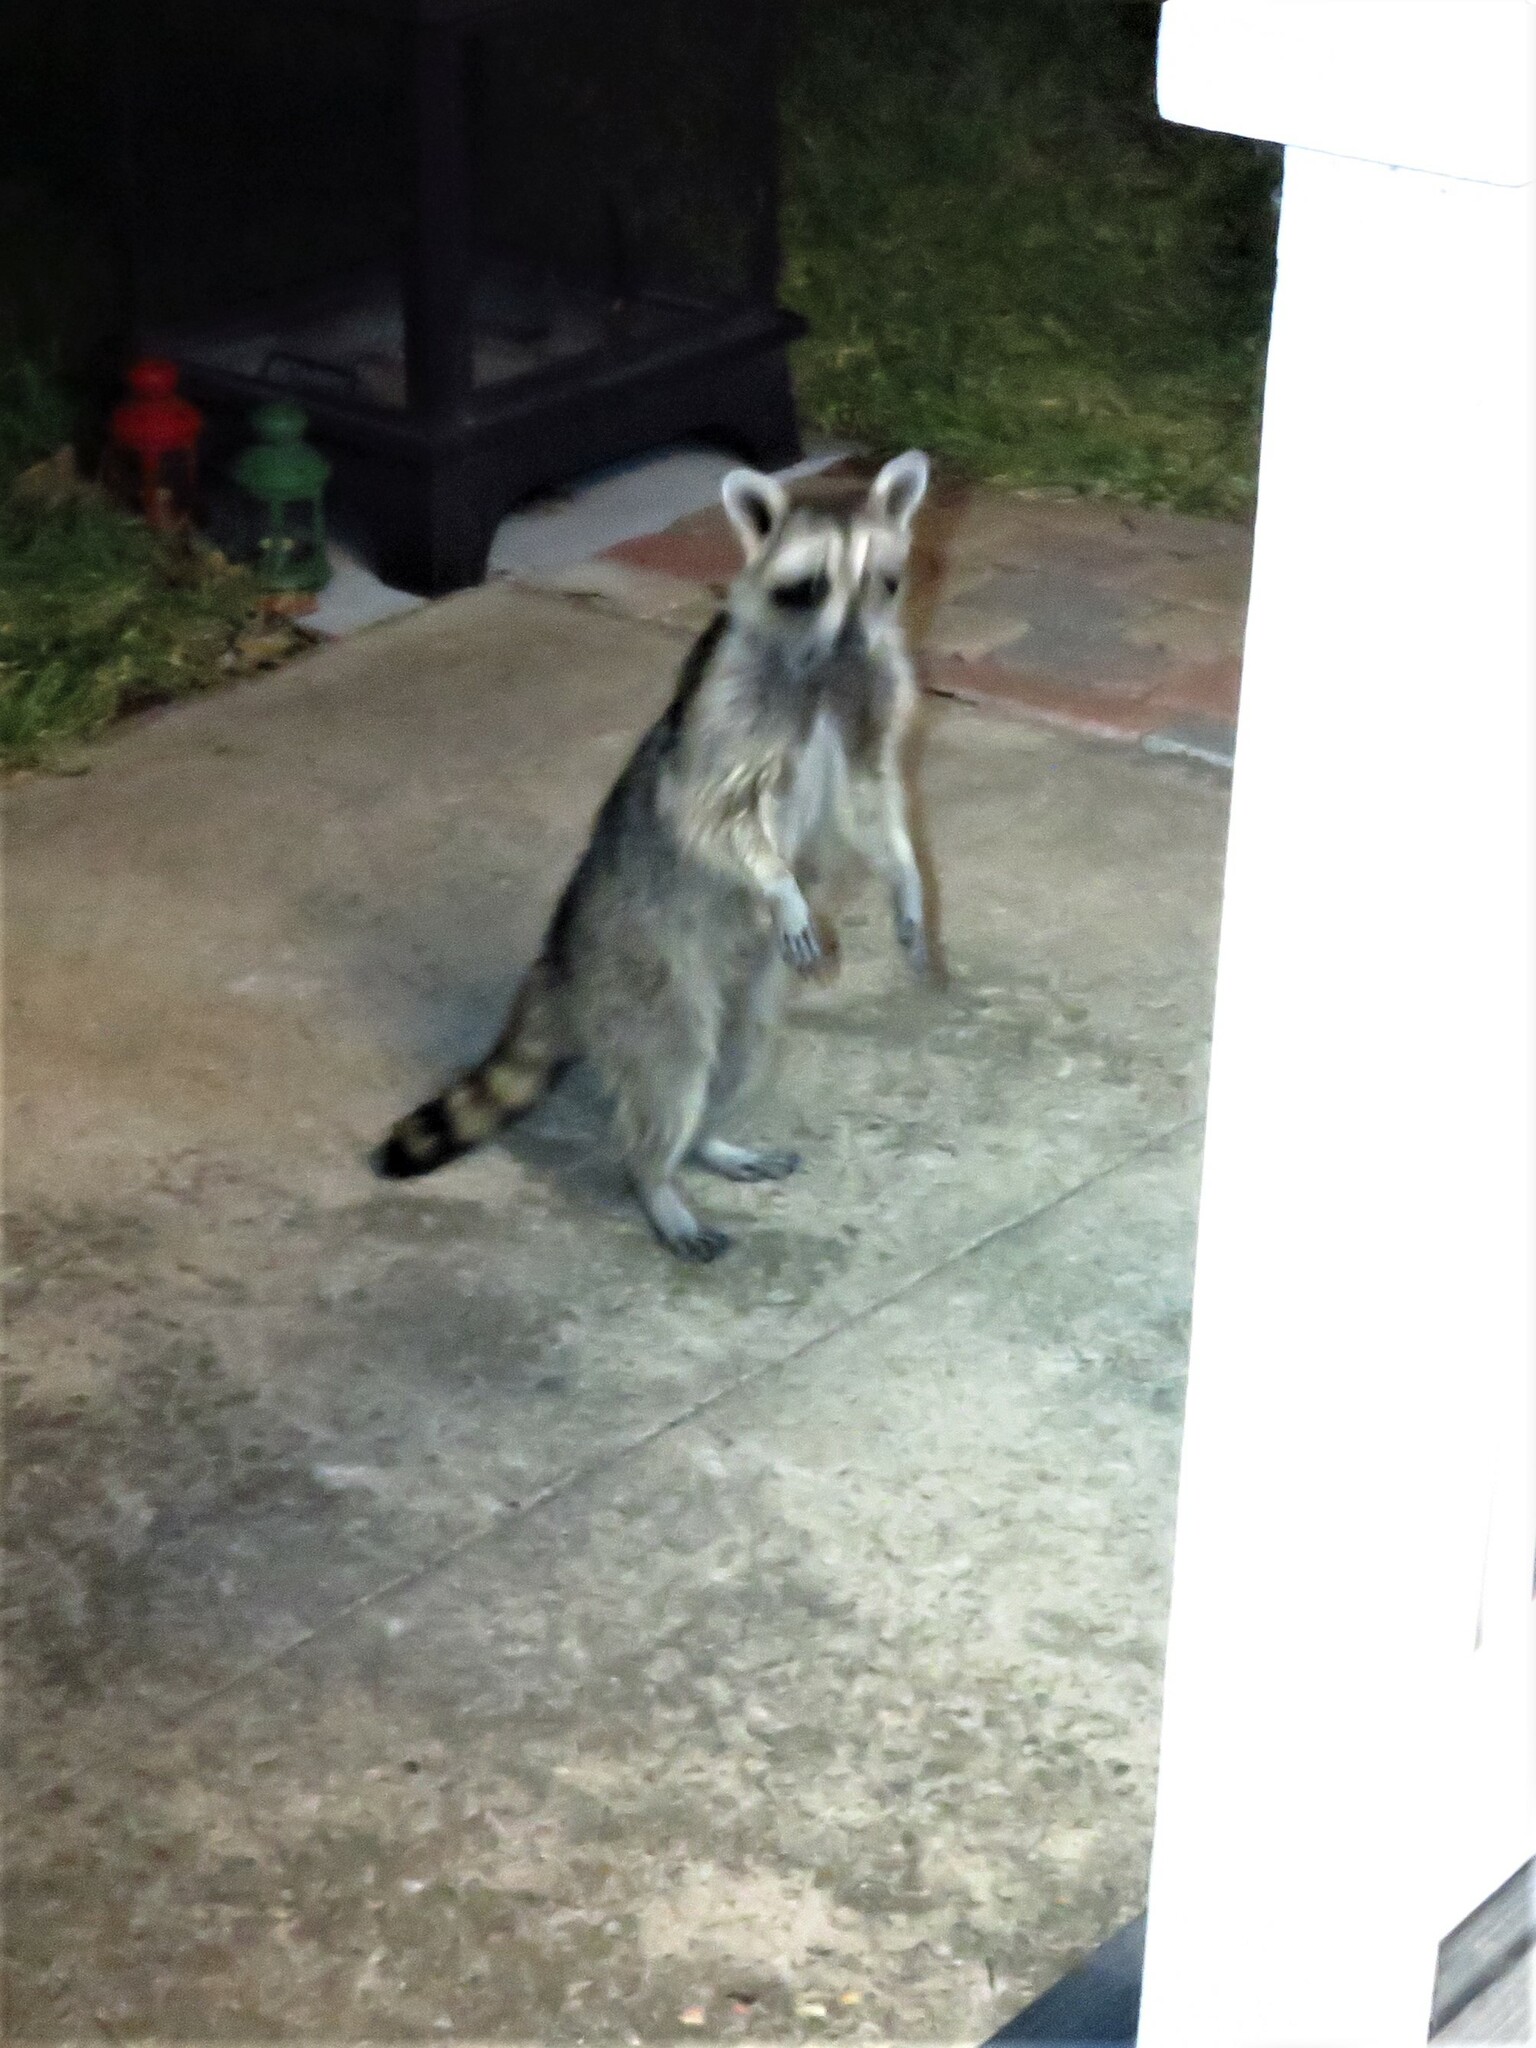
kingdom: Animalia
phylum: Chordata
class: Mammalia
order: Carnivora
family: Procyonidae
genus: Procyon
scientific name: Procyon lotor
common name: Raccoon
